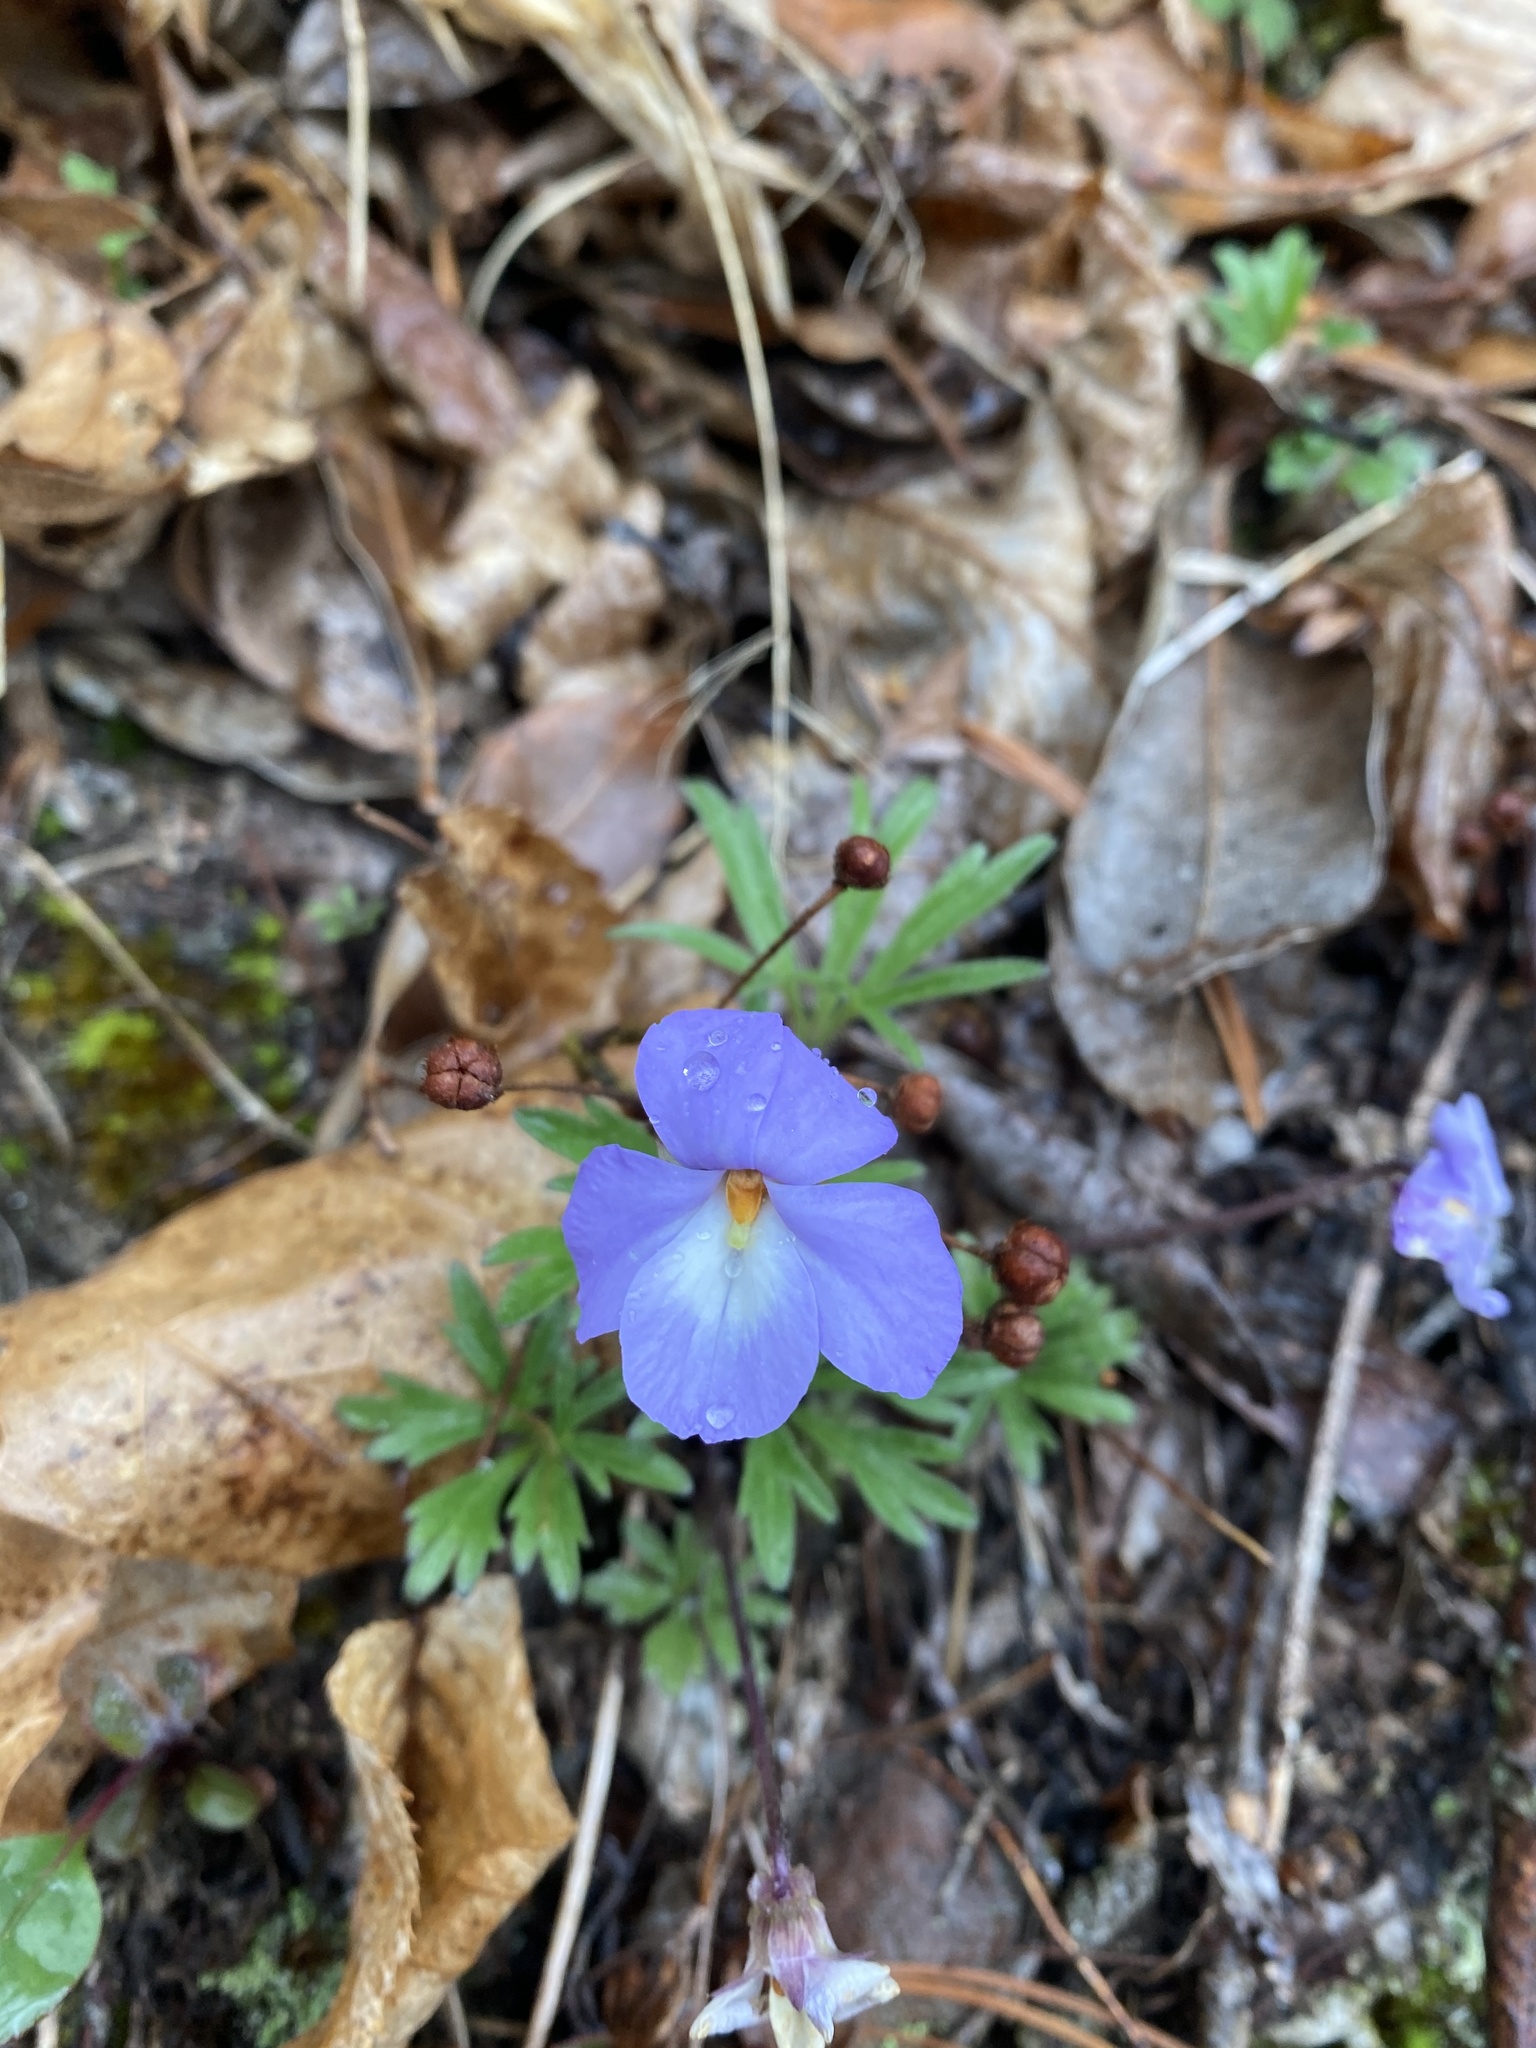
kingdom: Plantae
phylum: Tracheophyta
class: Magnoliopsida
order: Malpighiales
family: Violaceae
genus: Viola
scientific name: Viola pedata
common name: Pansy violet
